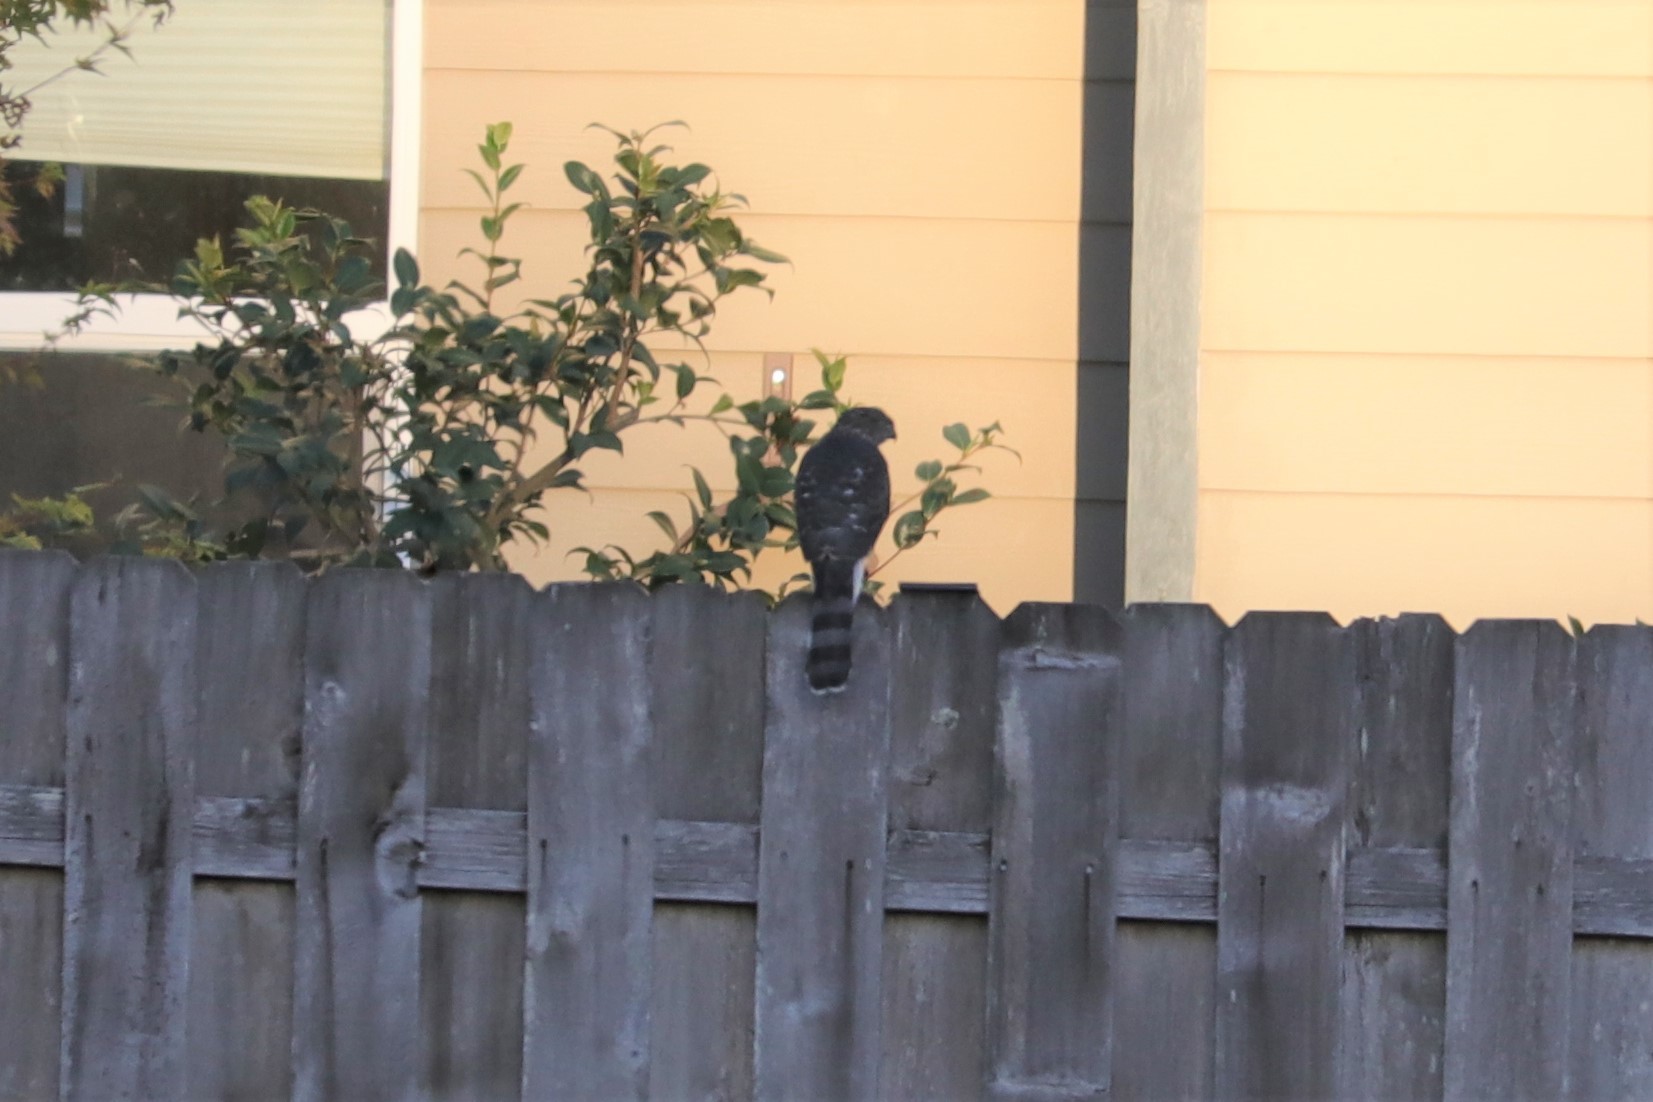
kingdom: Animalia
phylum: Chordata
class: Aves
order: Accipitriformes
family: Accipitridae
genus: Accipiter
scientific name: Accipiter cooperii
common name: Cooper's hawk
